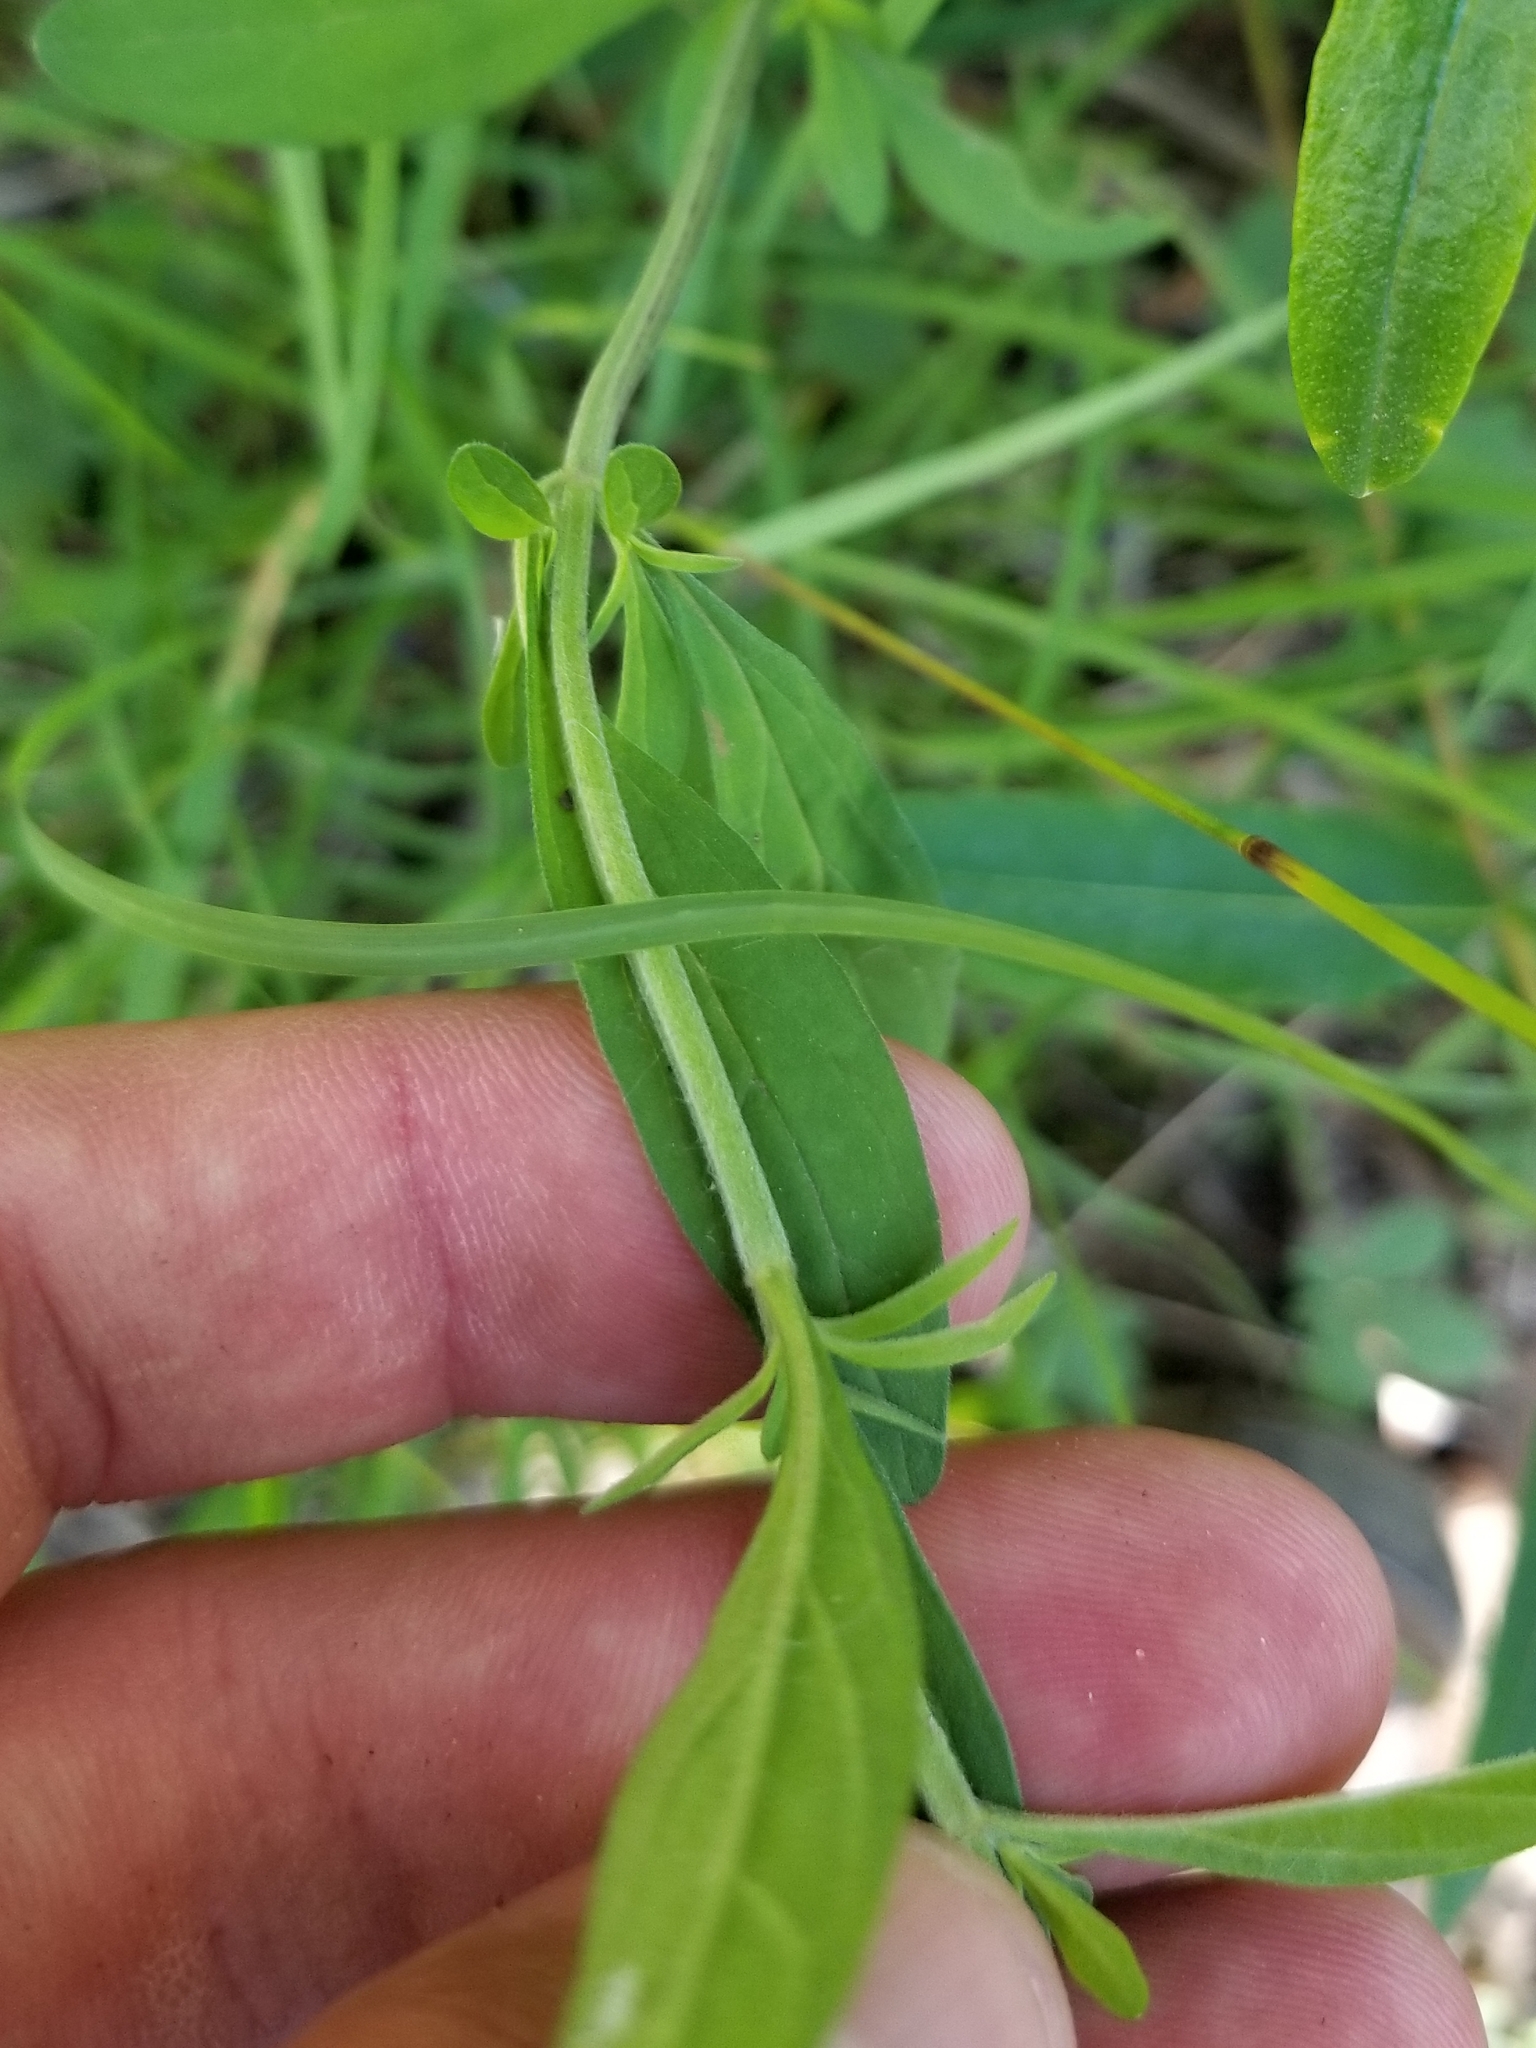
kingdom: Plantae
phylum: Tracheophyta
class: Magnoliopsida
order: Lamiales
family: Lamiaceae
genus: Scutellaria
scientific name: Scutellaria integrifolia
